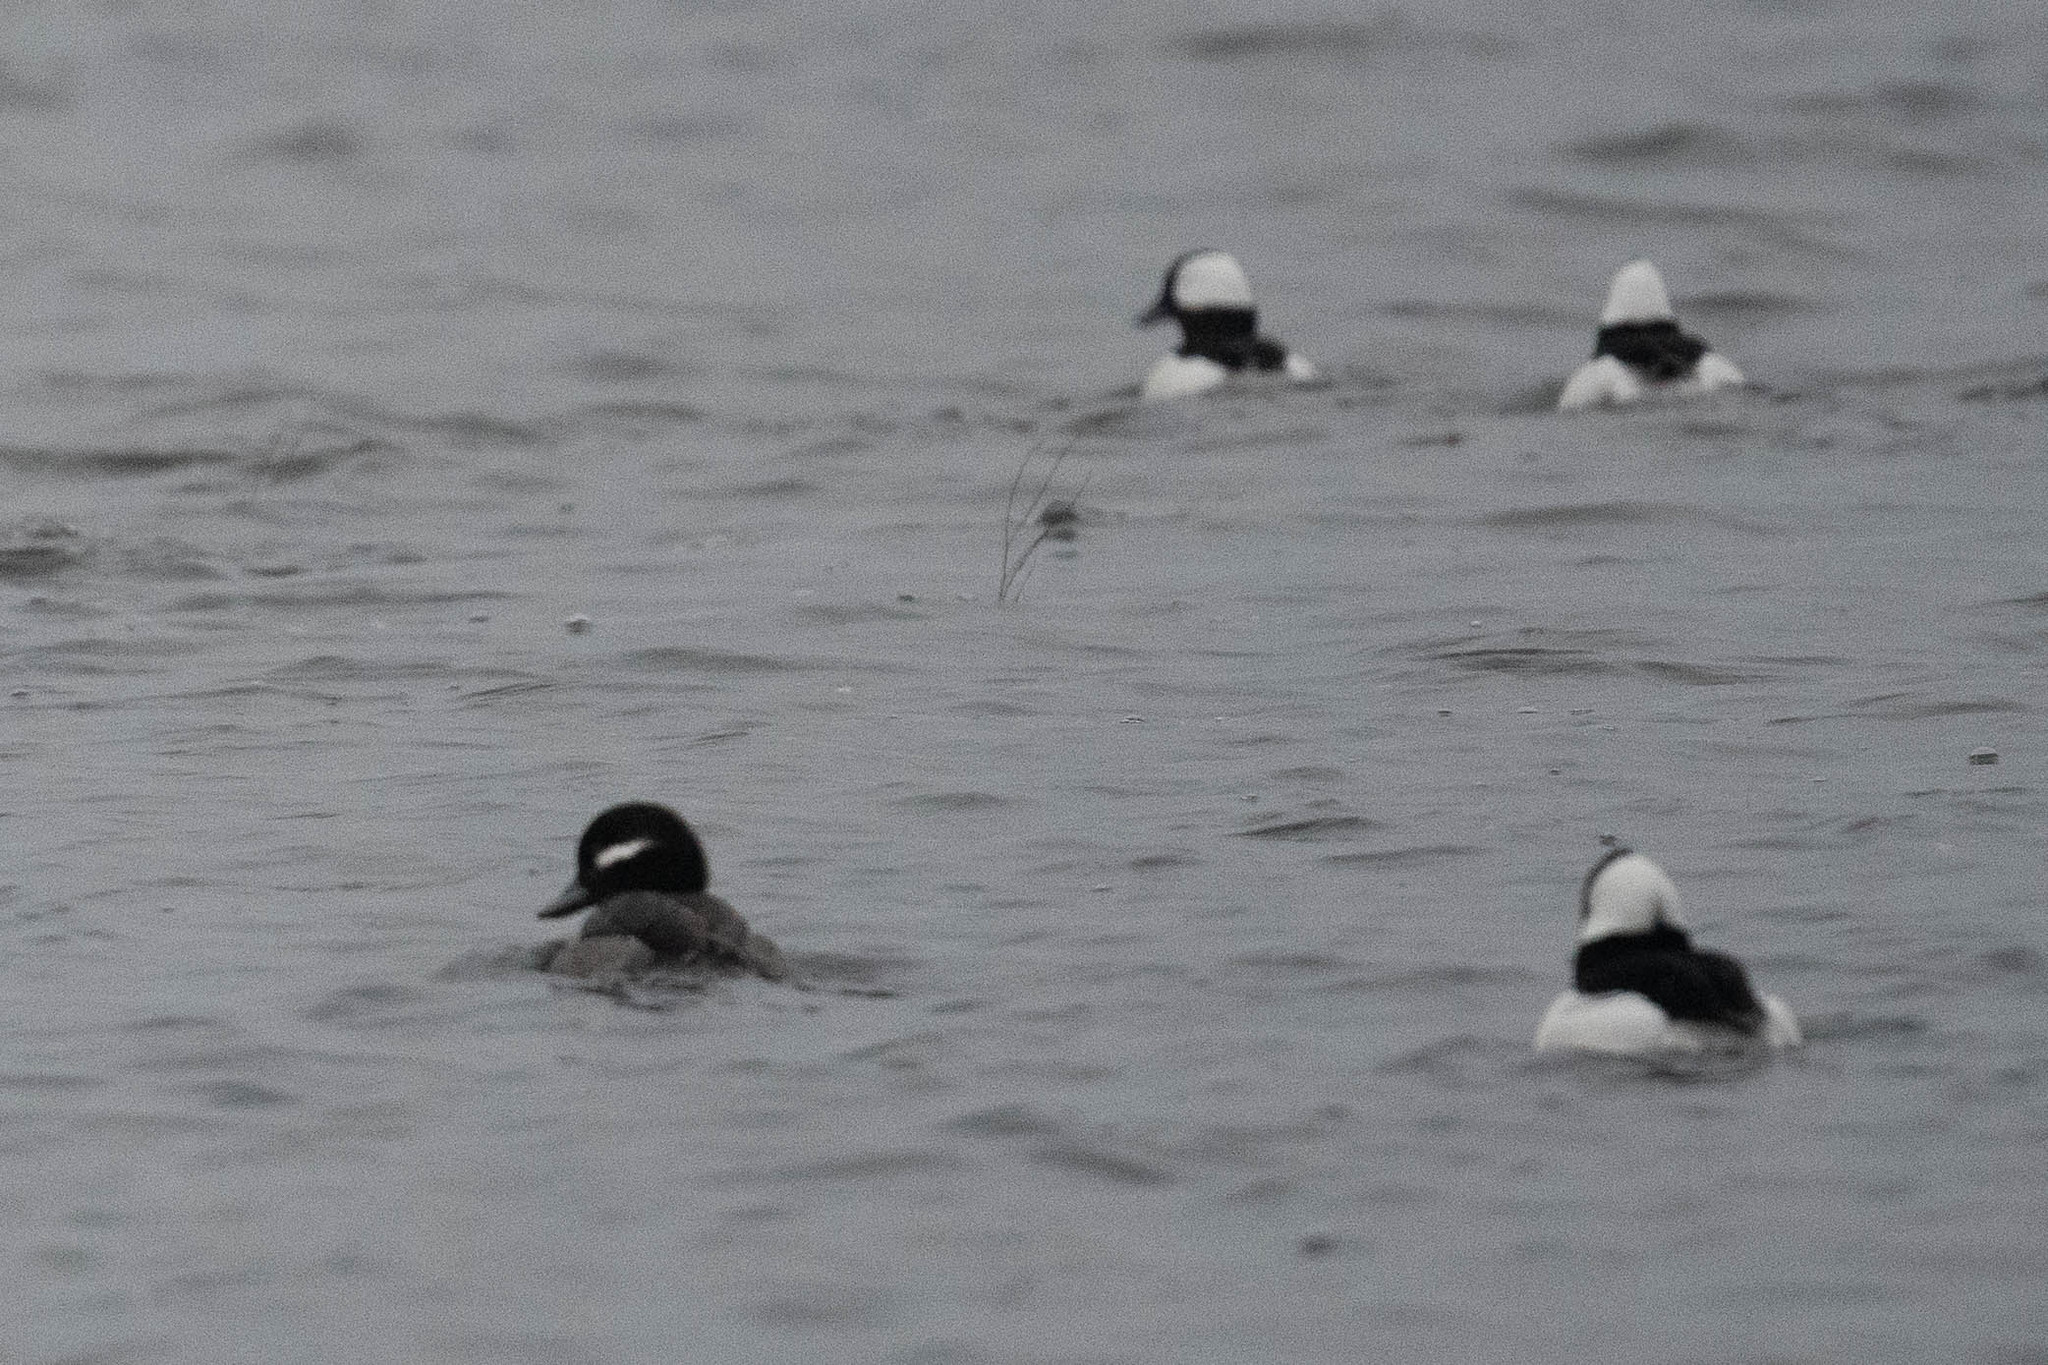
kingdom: Animalia
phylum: Chordata
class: Aves
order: Anseriformes
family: Anatidae
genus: Bucephala
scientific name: Bucephala albeola
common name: Bufflehead
